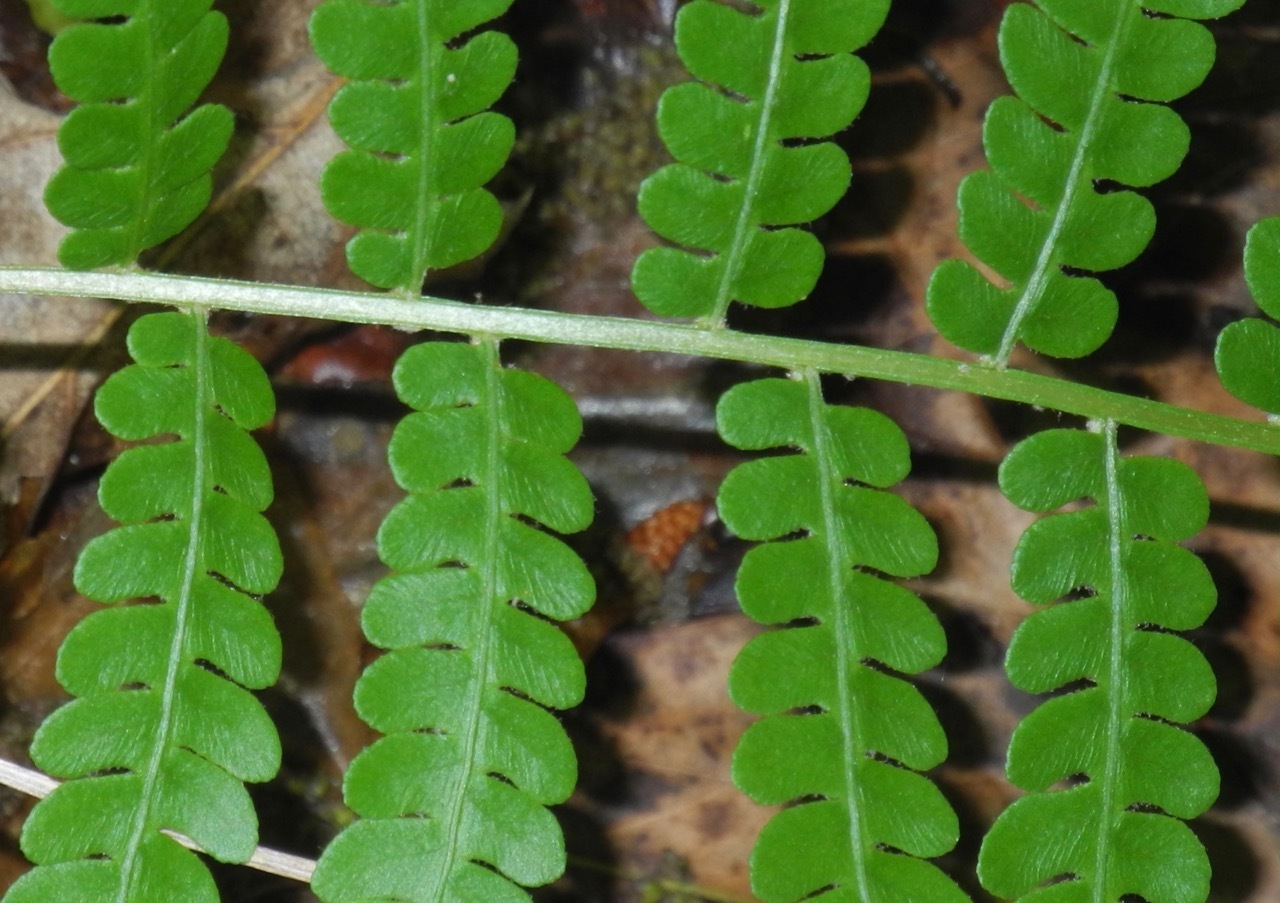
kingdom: Plantae
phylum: Tracheophyta
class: Polypodiopsida
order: Osmundales
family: Osmundaceae
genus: Osmundastrum
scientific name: Osmundastrum cinnamomeum
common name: Cinnamon fern
